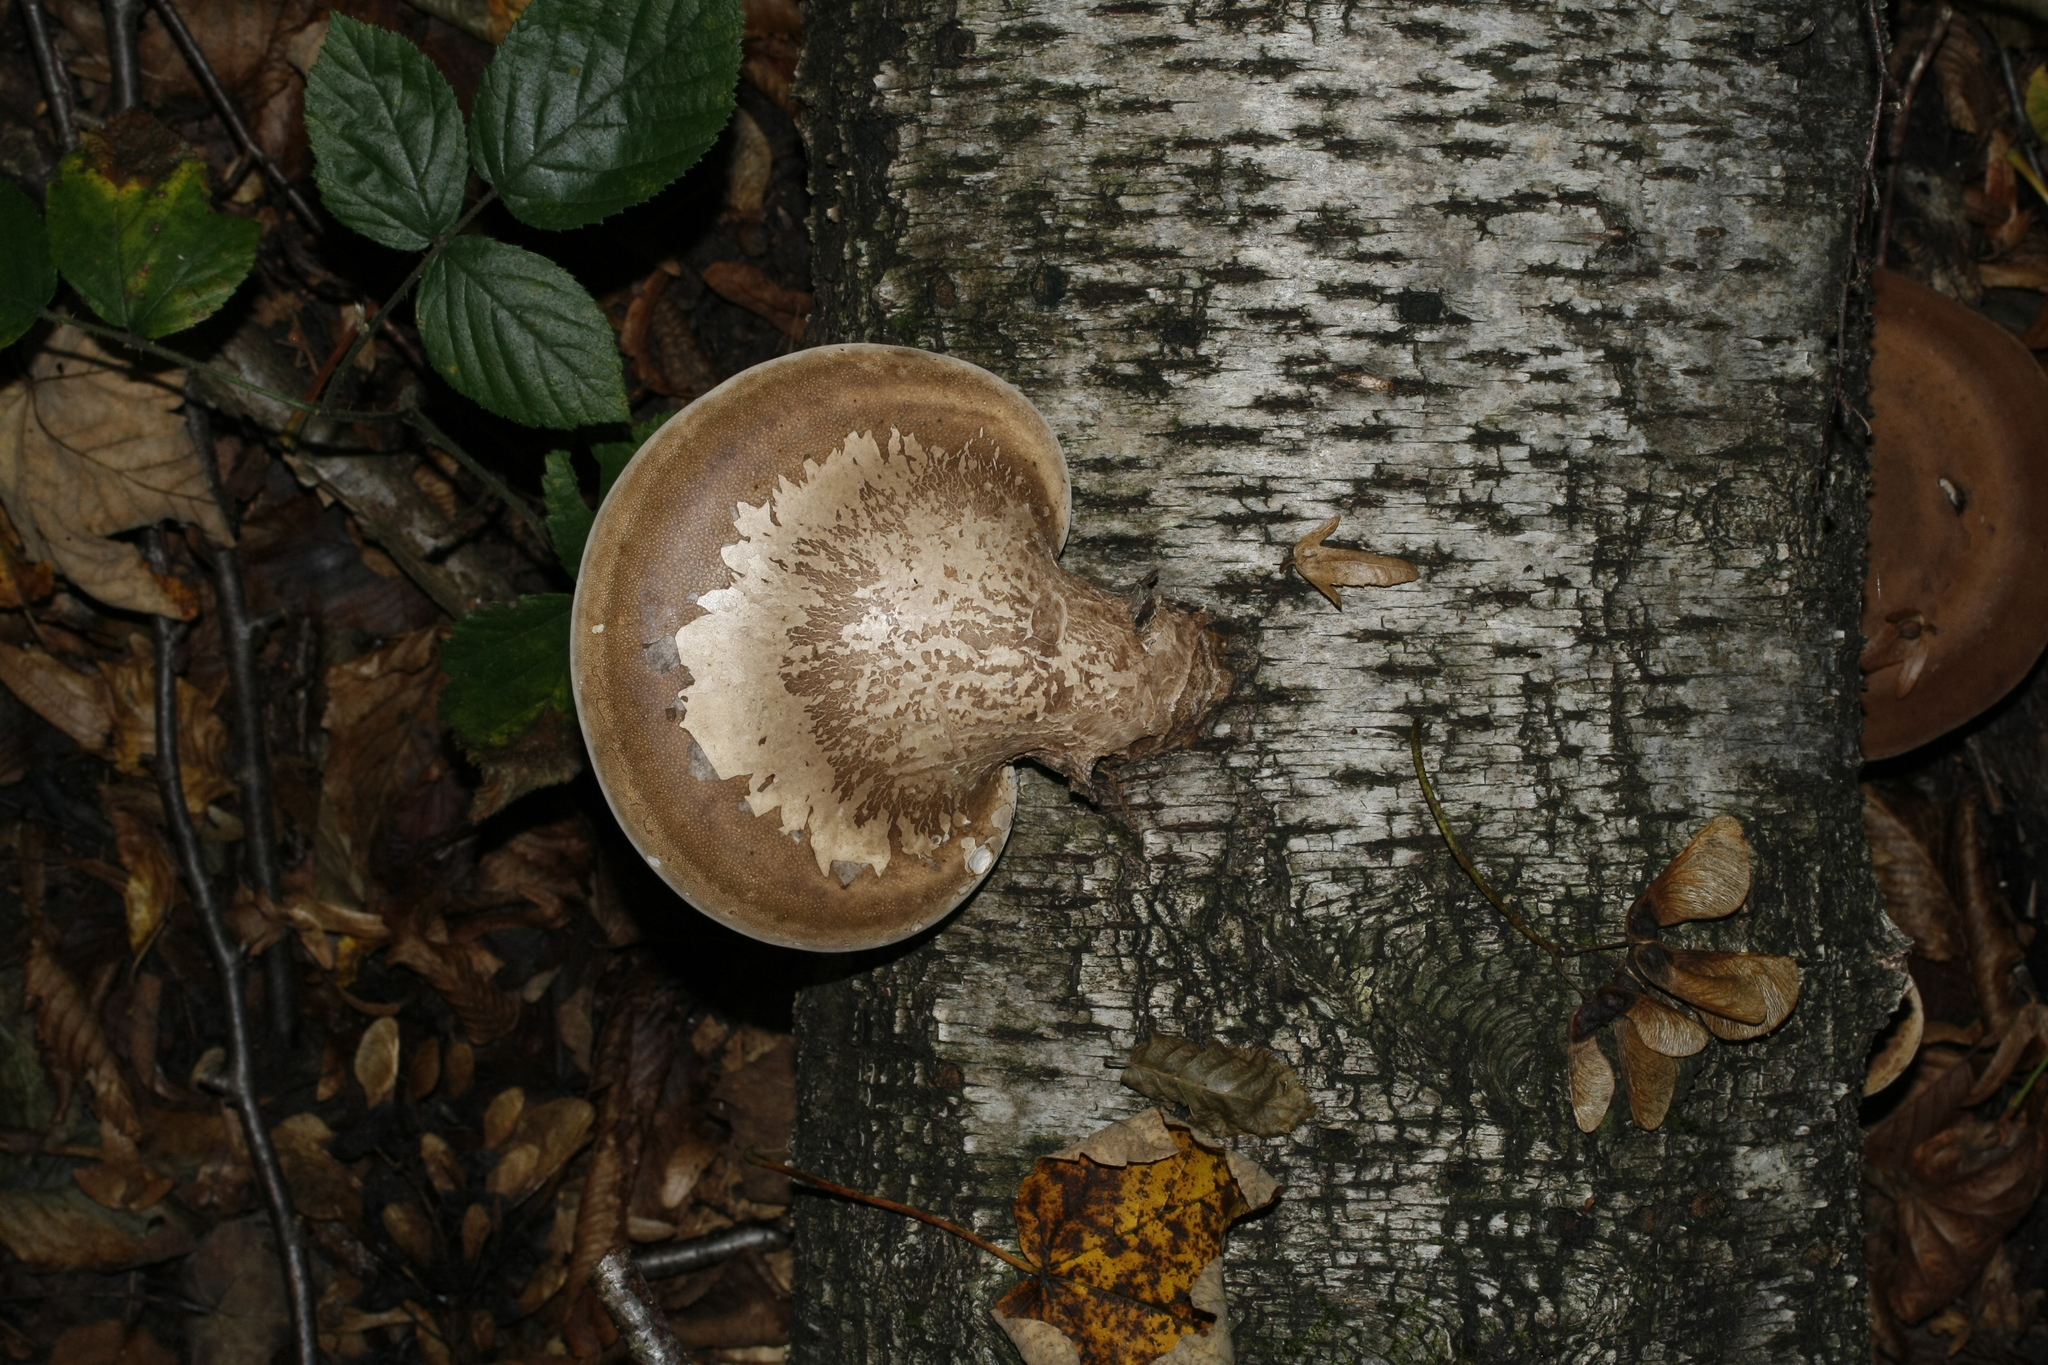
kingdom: Fungi
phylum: Basidiomycota
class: Agaricomycetes
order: Polyporales
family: Fomitopsidaceae
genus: Fomitopsis
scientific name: Fomitopsis betulina
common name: Birch polypore
